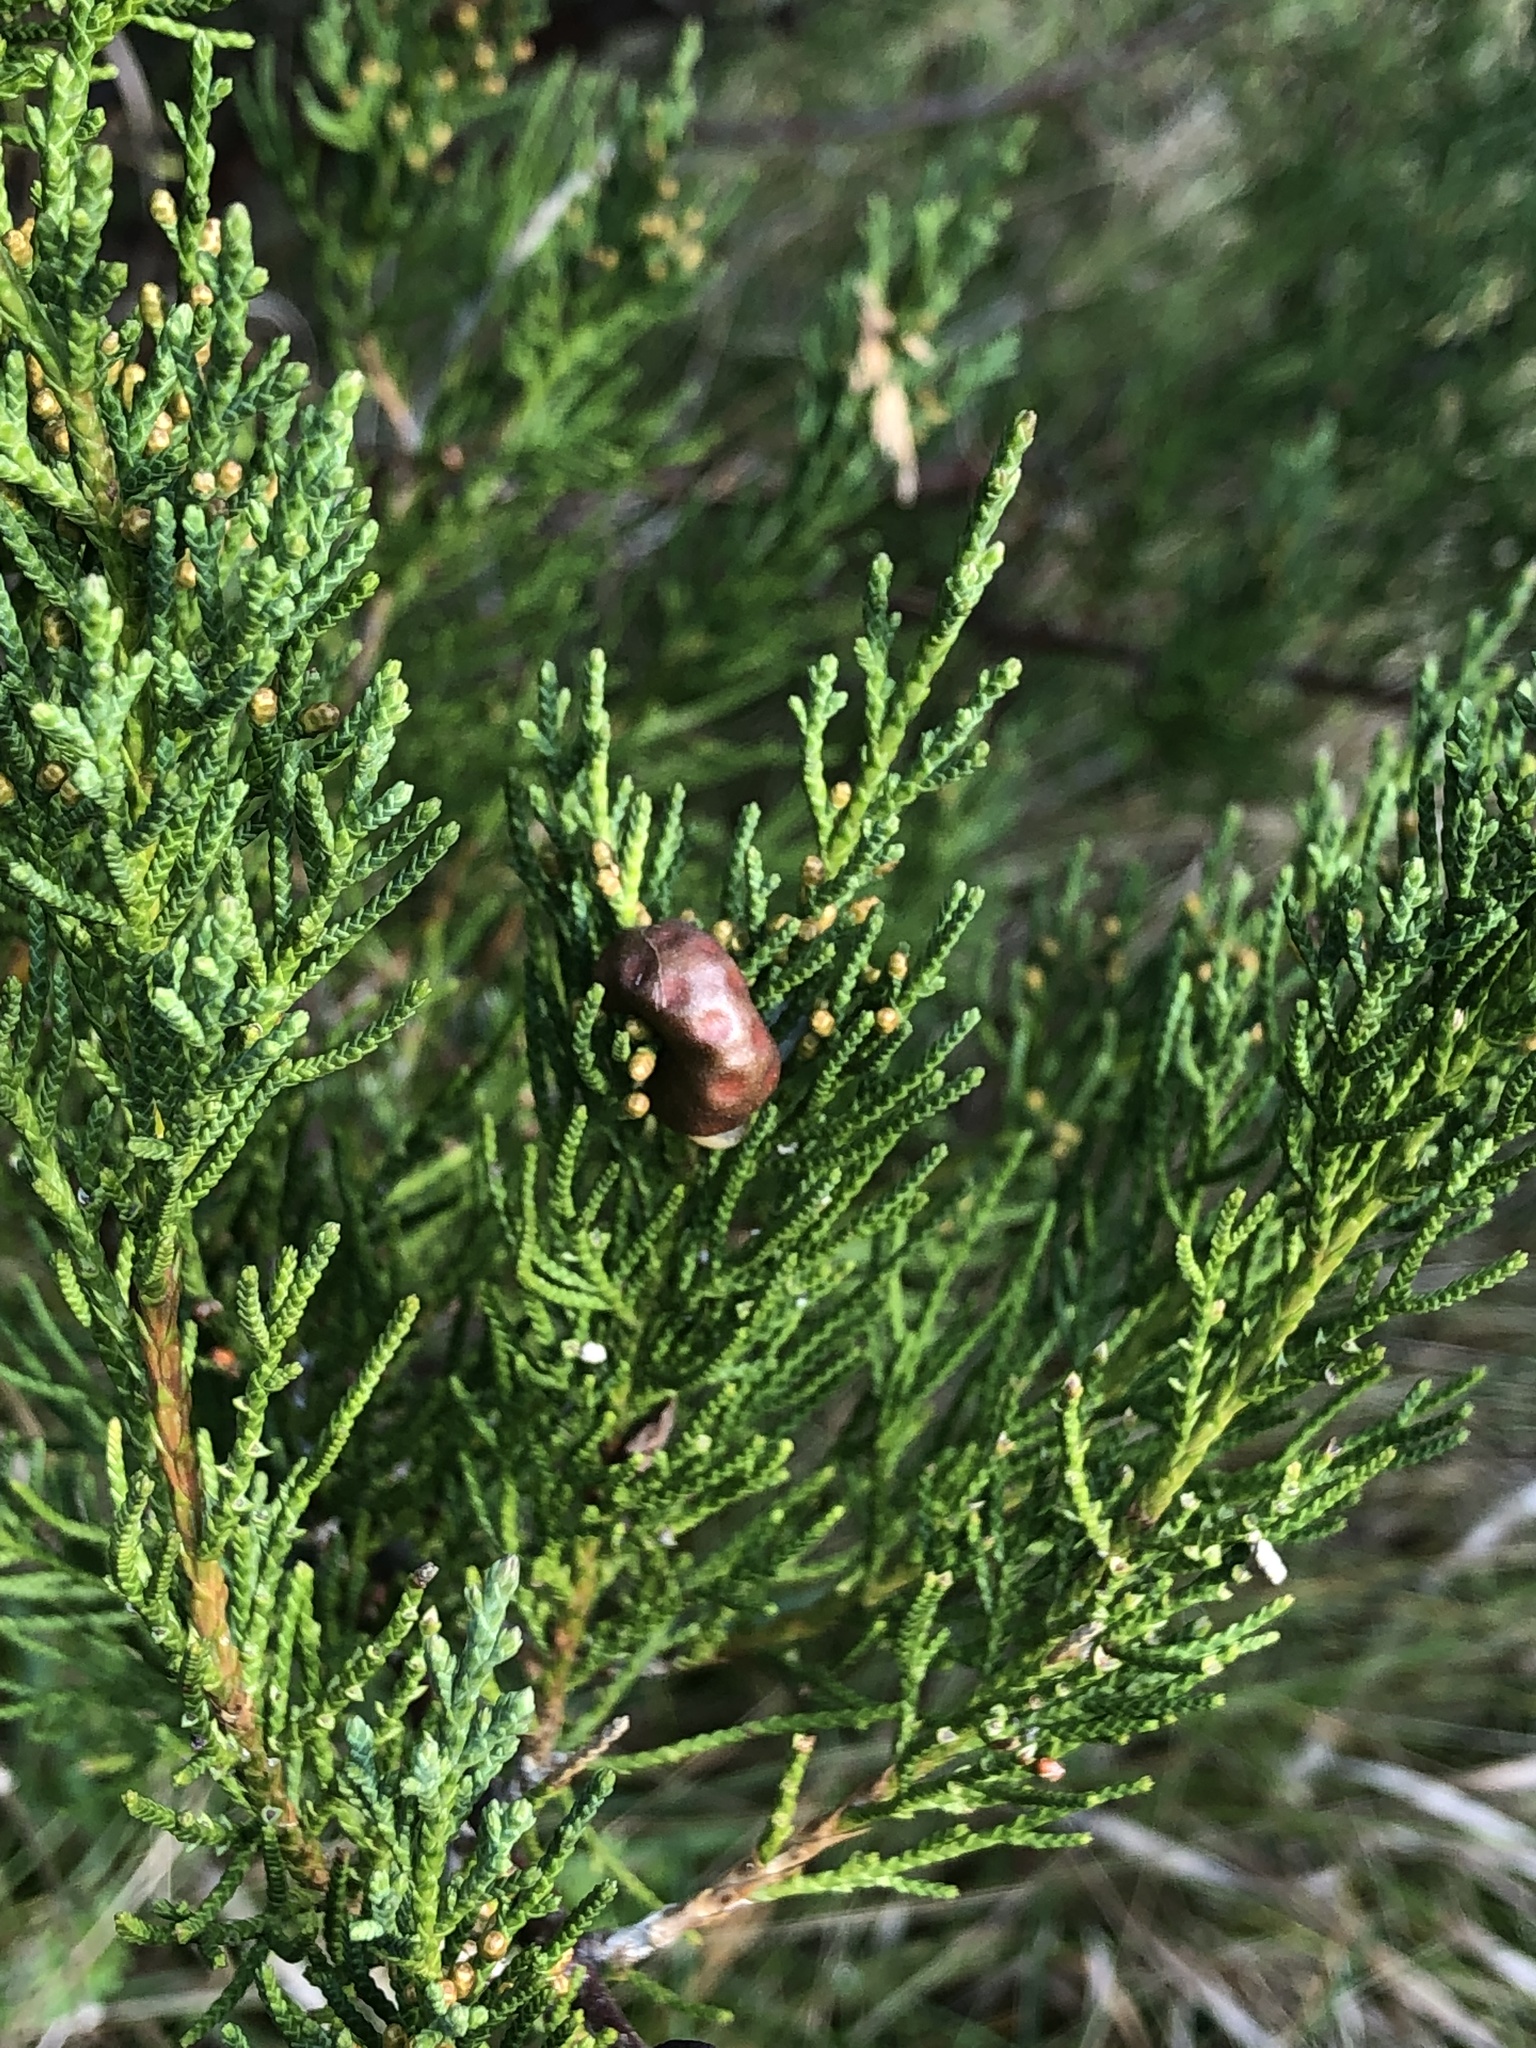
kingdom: Fungi
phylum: Basidiomycota
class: Pucciniomycetes
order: Pucciniales
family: Gymnosporangiaceae
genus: Gymnosporangium
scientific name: Gymnosporangium juniperi-virginianae
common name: Juniper-apple rust
